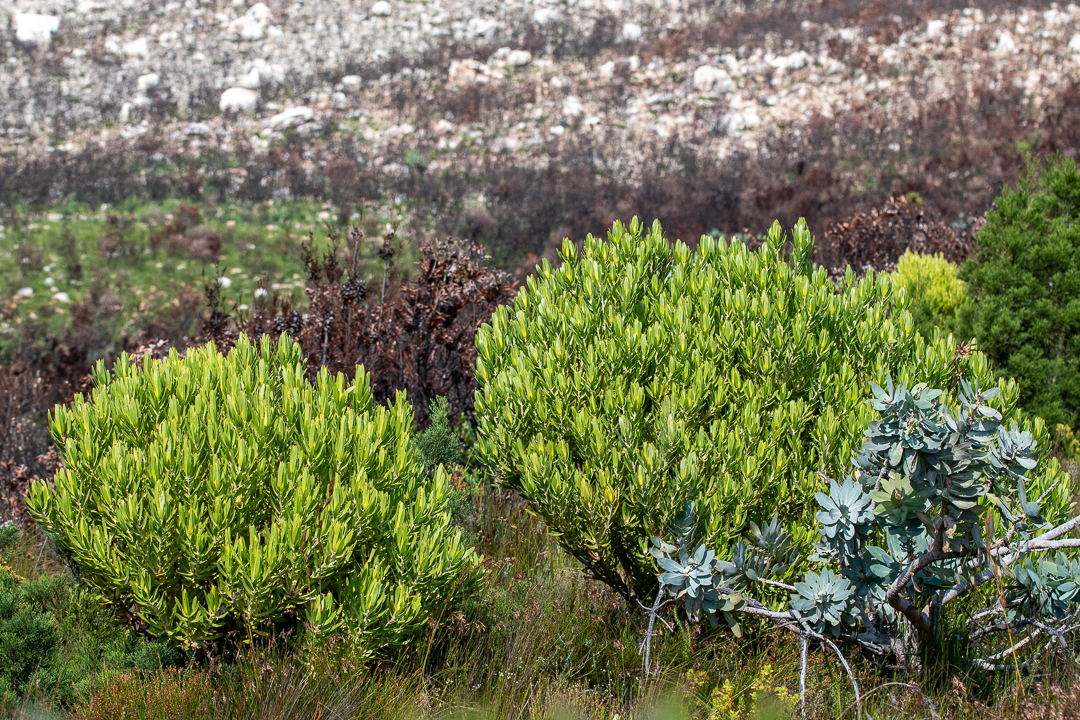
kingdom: Plantae
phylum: Tracheophyta
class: Magnoliopsida
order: Proteales
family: Proteaceae
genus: Leucadendron
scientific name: Leucadendron laureolum
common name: Golden sunshinebush
